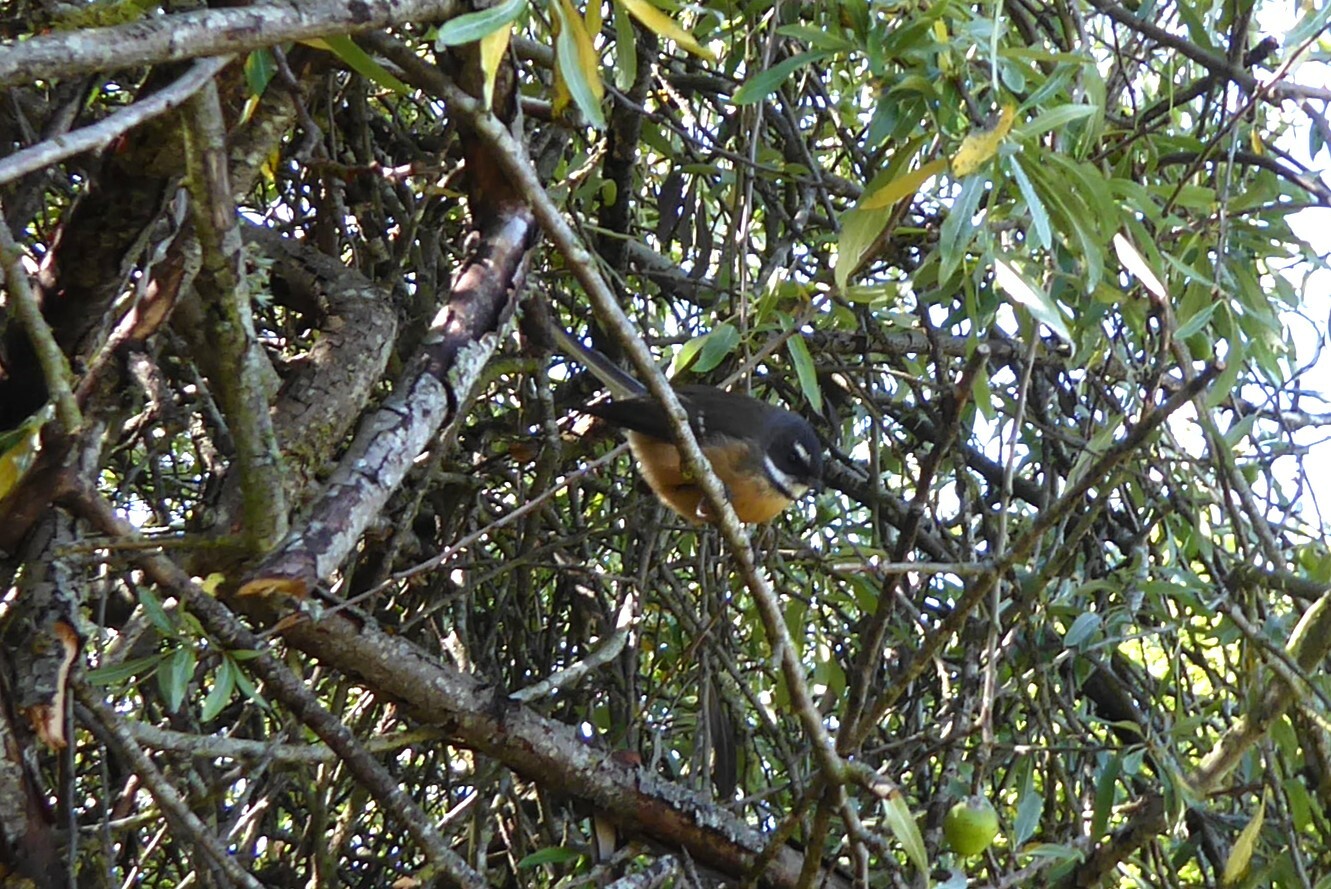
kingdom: Animalia
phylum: Chordata
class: Aves
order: Passeriformes
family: Rhipiduridae
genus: Rhipidura
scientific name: Rhipidura fuliginosa
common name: New zealand fantail
